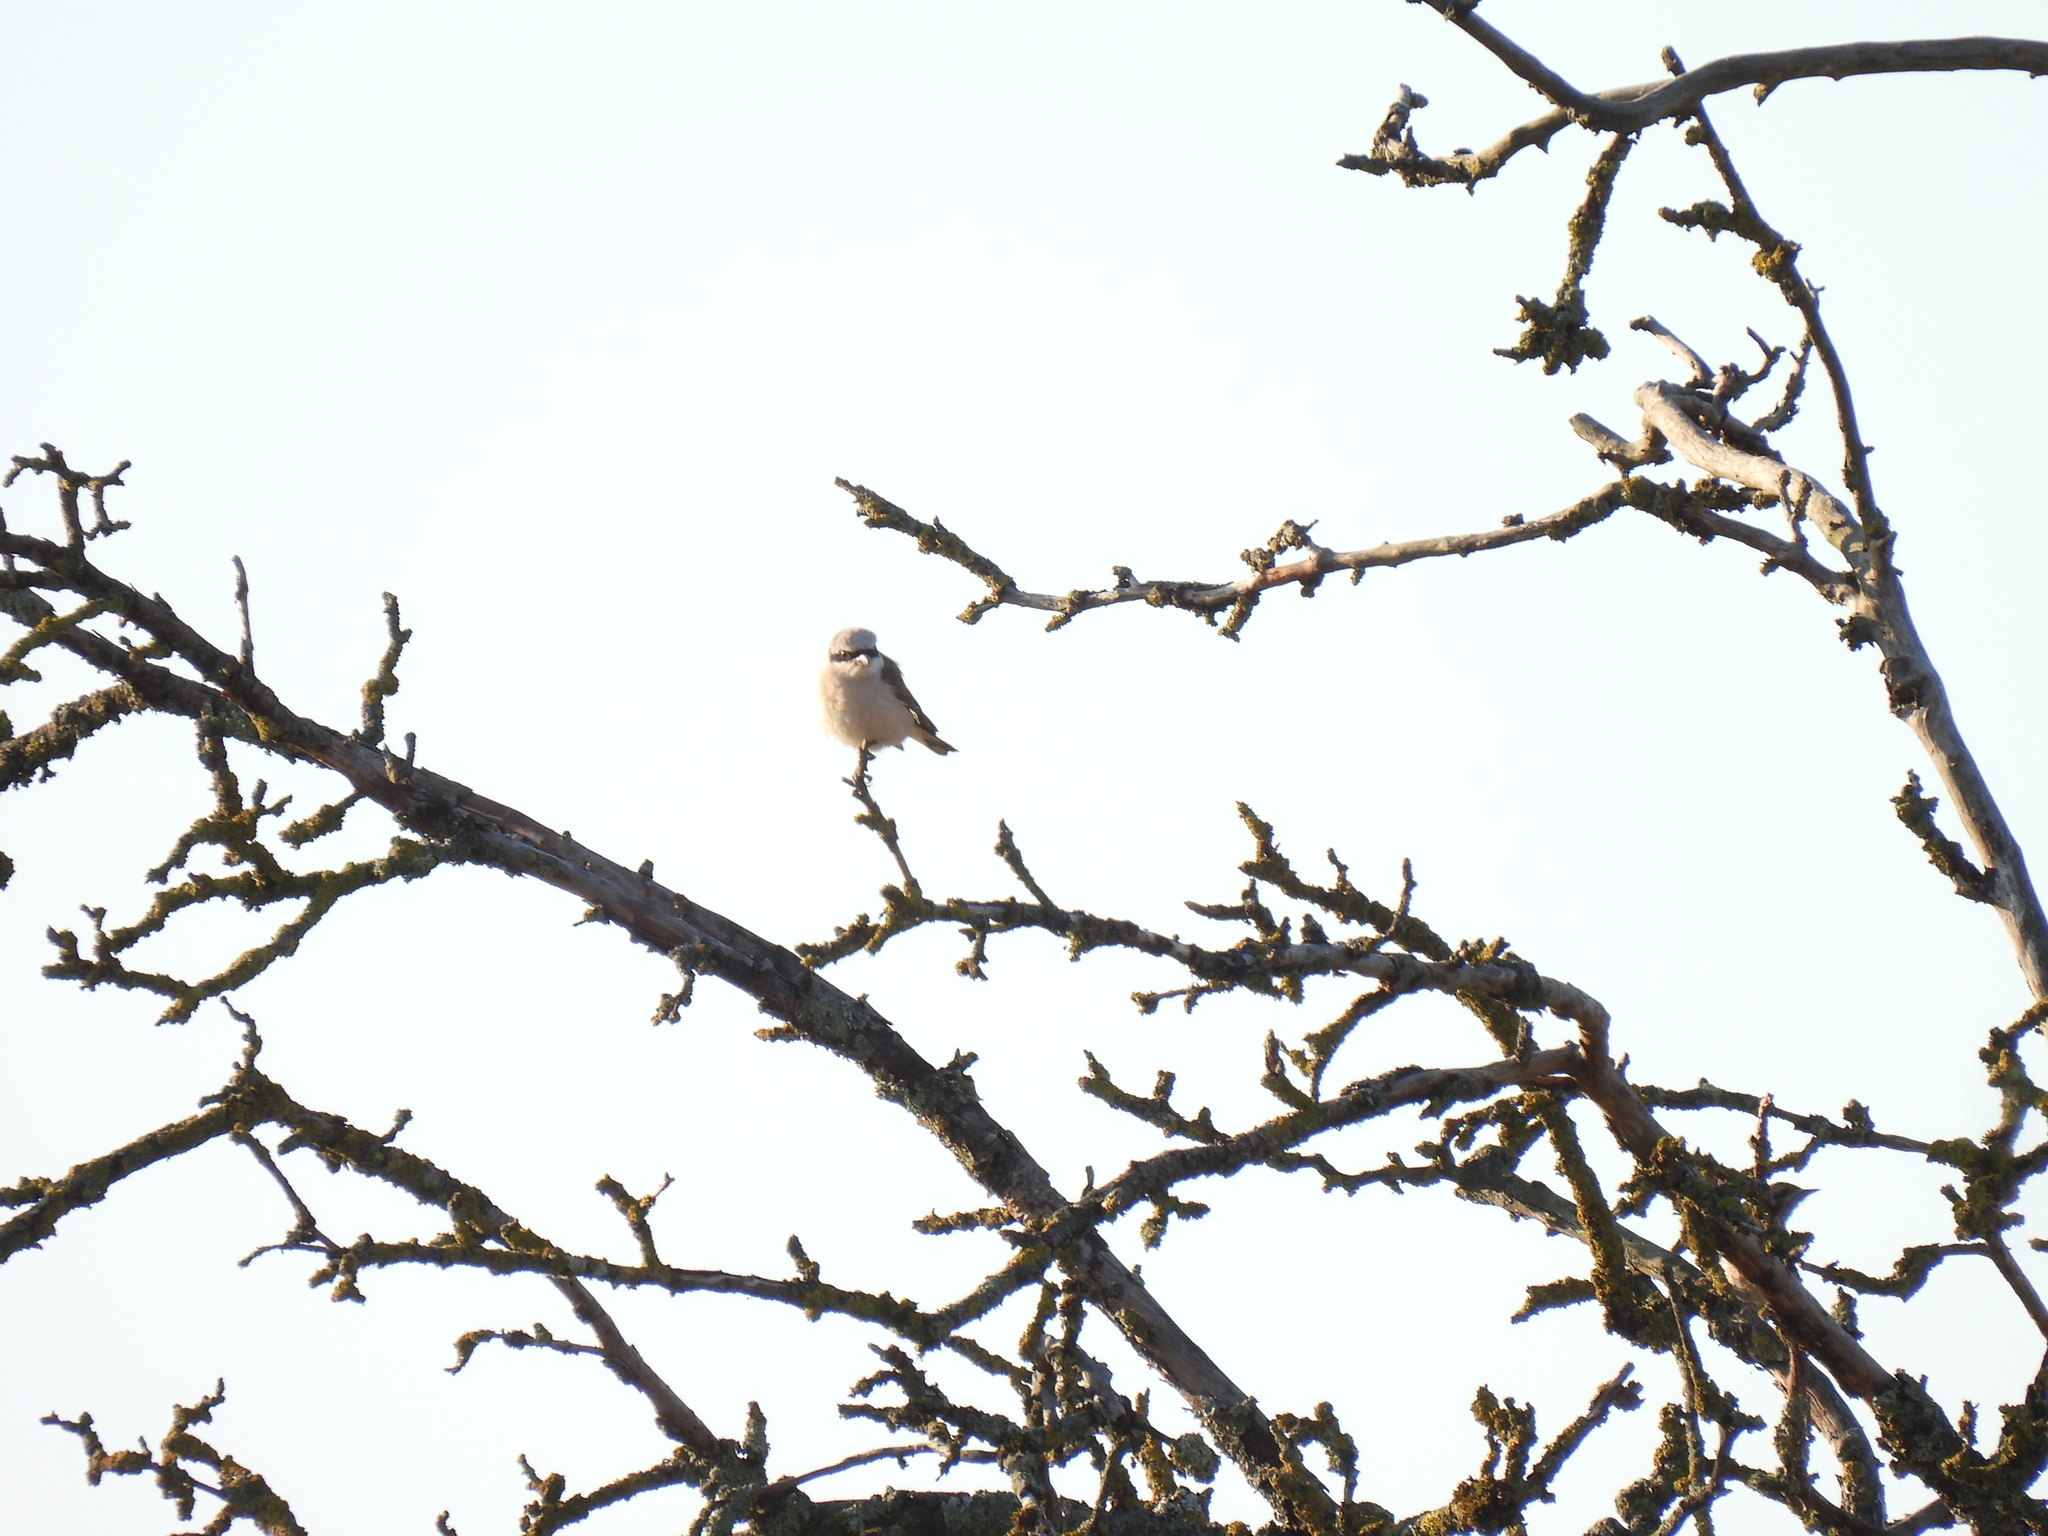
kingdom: Animalia
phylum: Chordata
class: Aves
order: Passeriformes
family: Laniidae
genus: Lanius
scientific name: Lanius collurio
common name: Red-backed shrike
